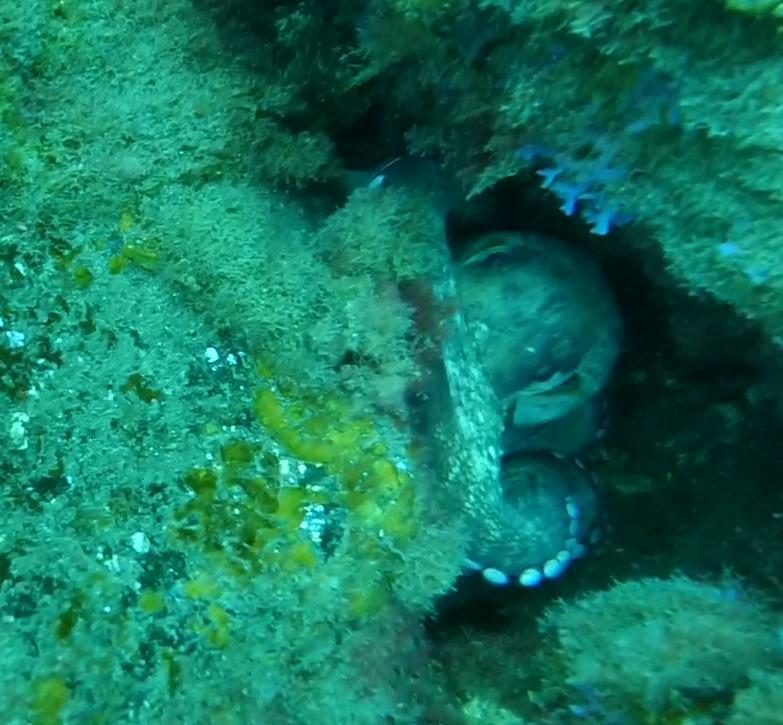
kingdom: Animalia
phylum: Mollusca
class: Cephalopoda
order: Octopoda
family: Octopodidae
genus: Octopus
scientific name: Octopus vulgaris
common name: Common octopus
